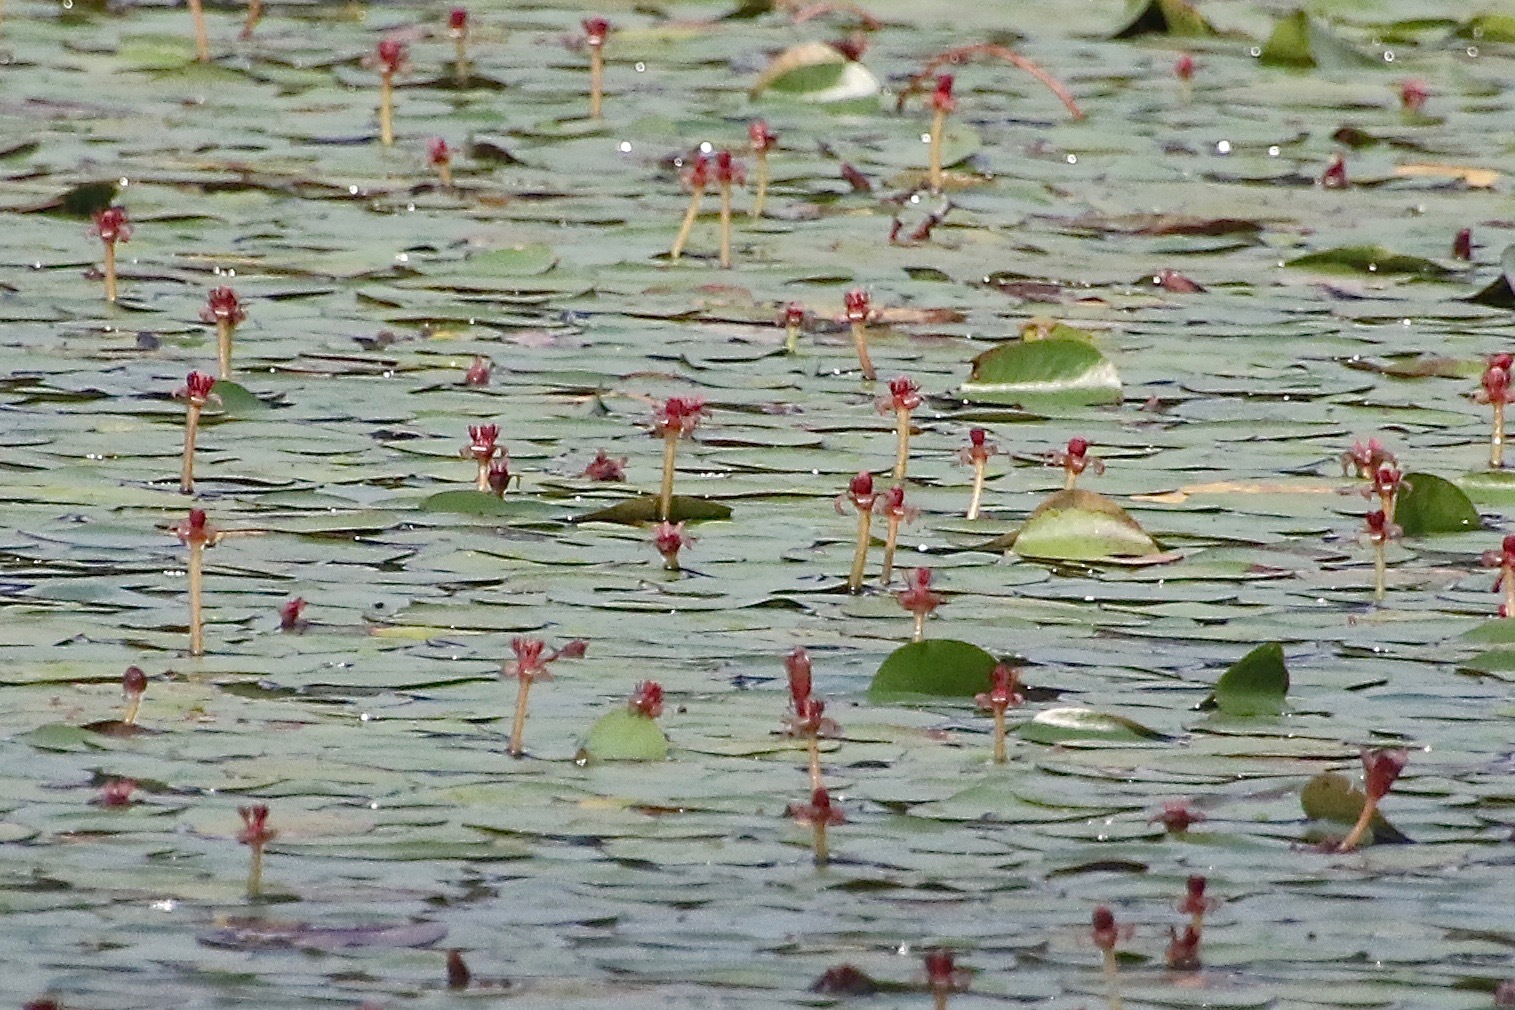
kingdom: Plantae
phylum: Tracheophyta
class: Magnoliopsida
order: Nymphaeales
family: Cabombaceae
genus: Brasenia
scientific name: Brasenia schreberi
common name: Water-shield
